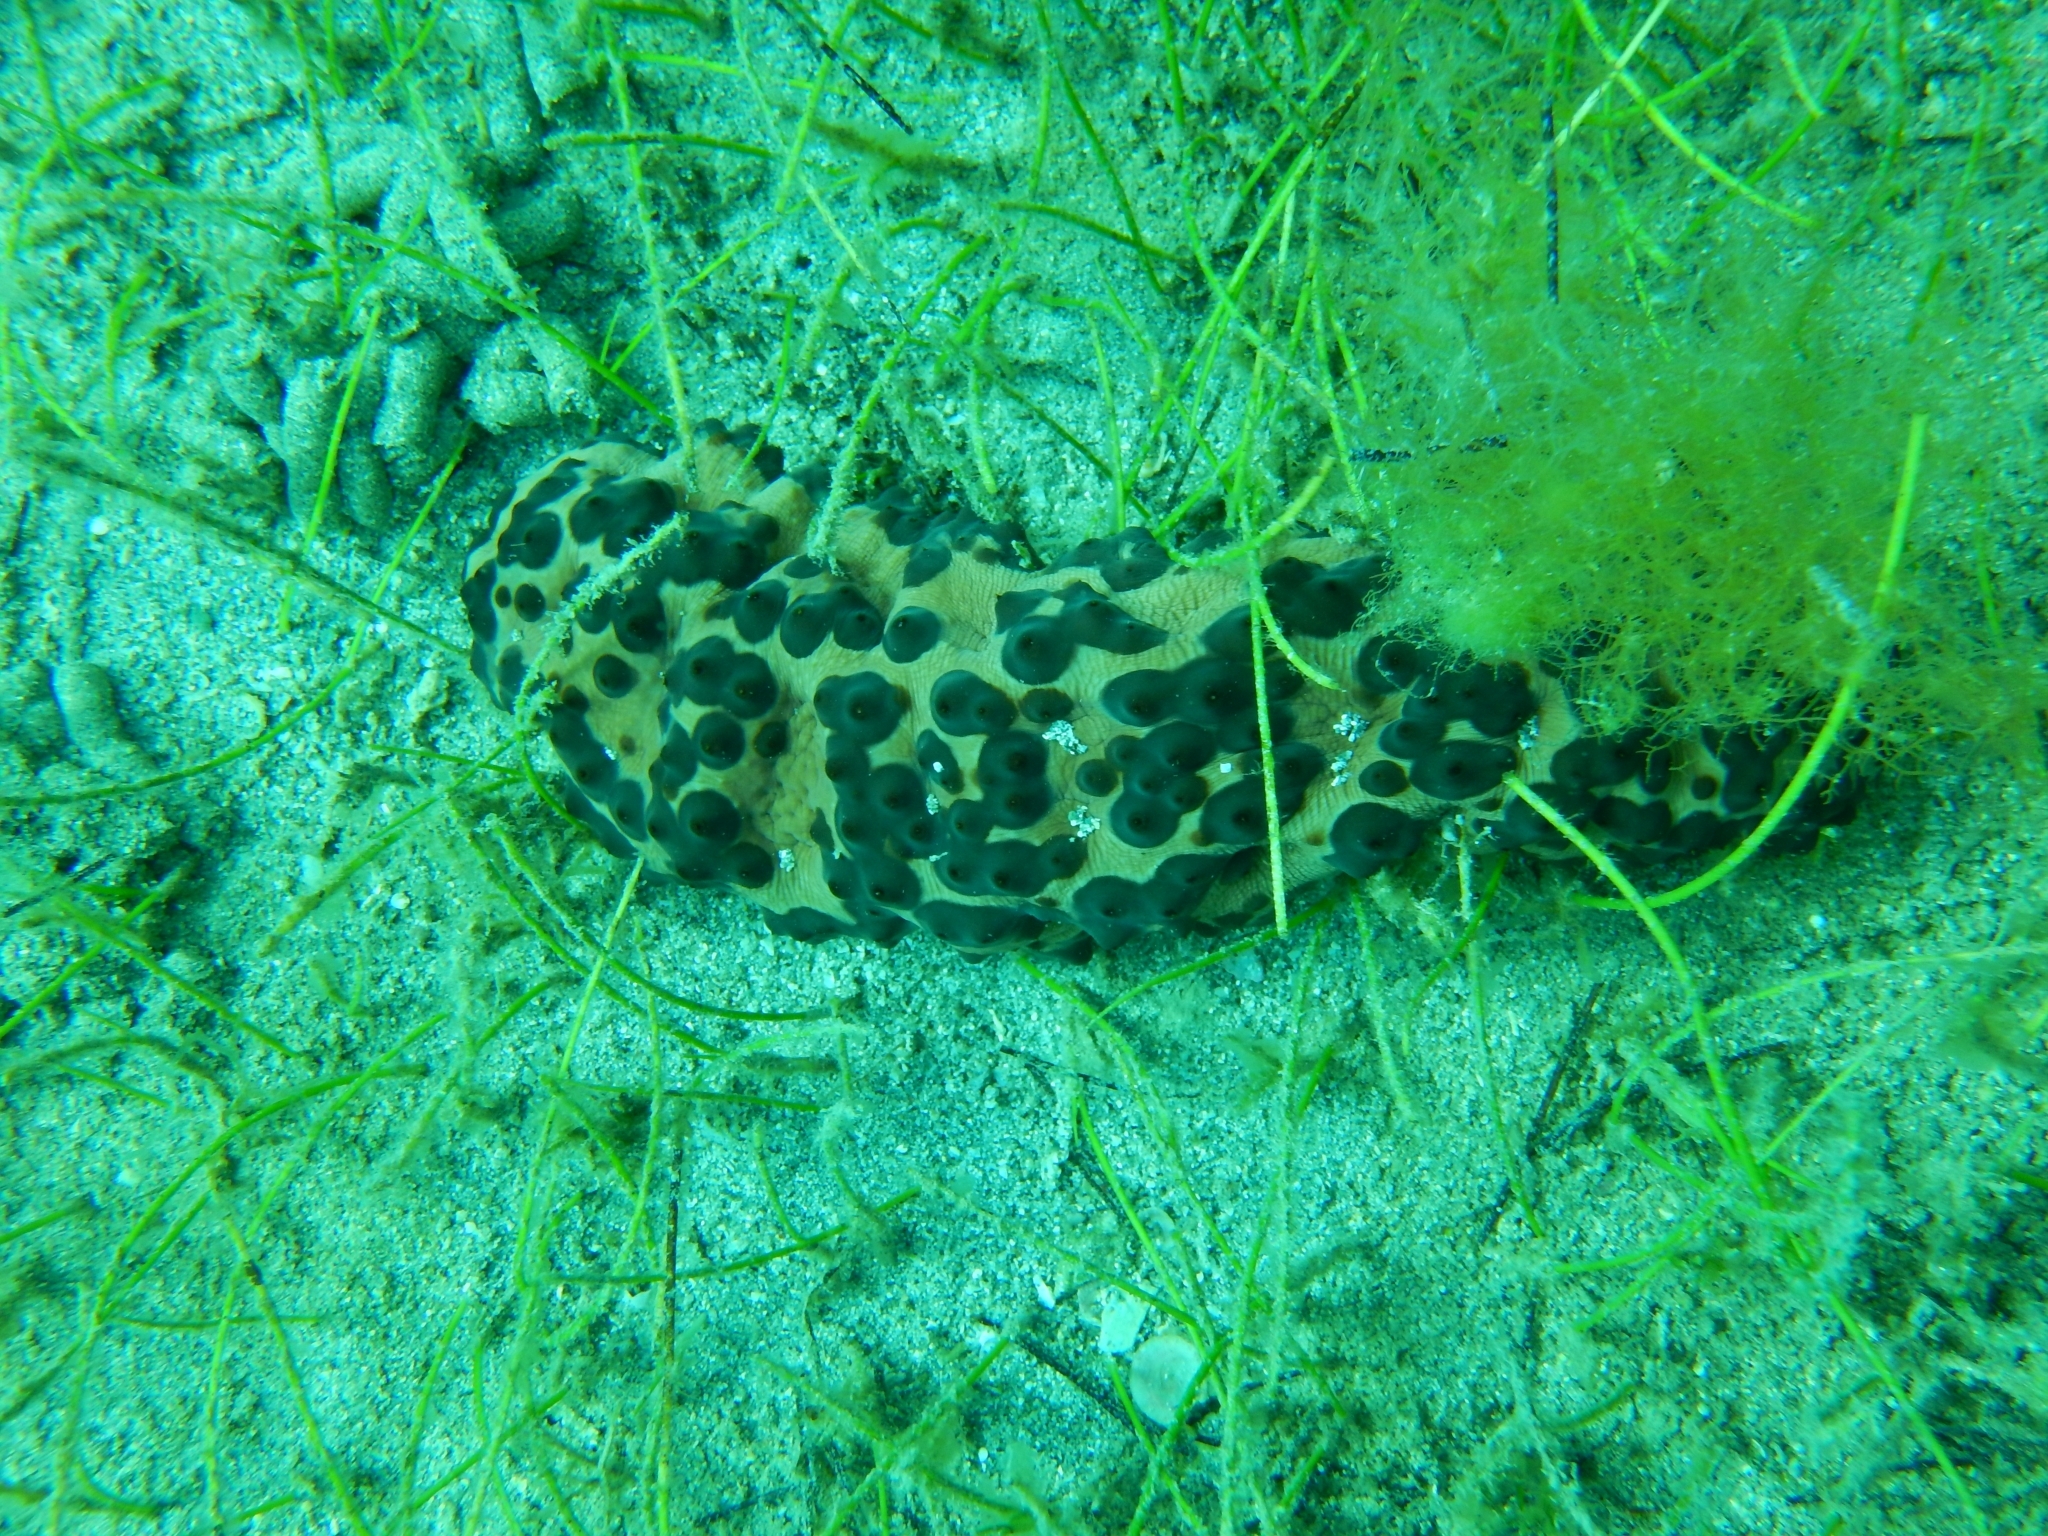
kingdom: Animalia
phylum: Echinodermata
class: Holothuroidea
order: Synallactida
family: Stichopodidae
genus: Isostichopus
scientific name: Isostichopus badionotus
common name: Chocolate chip cucumber
